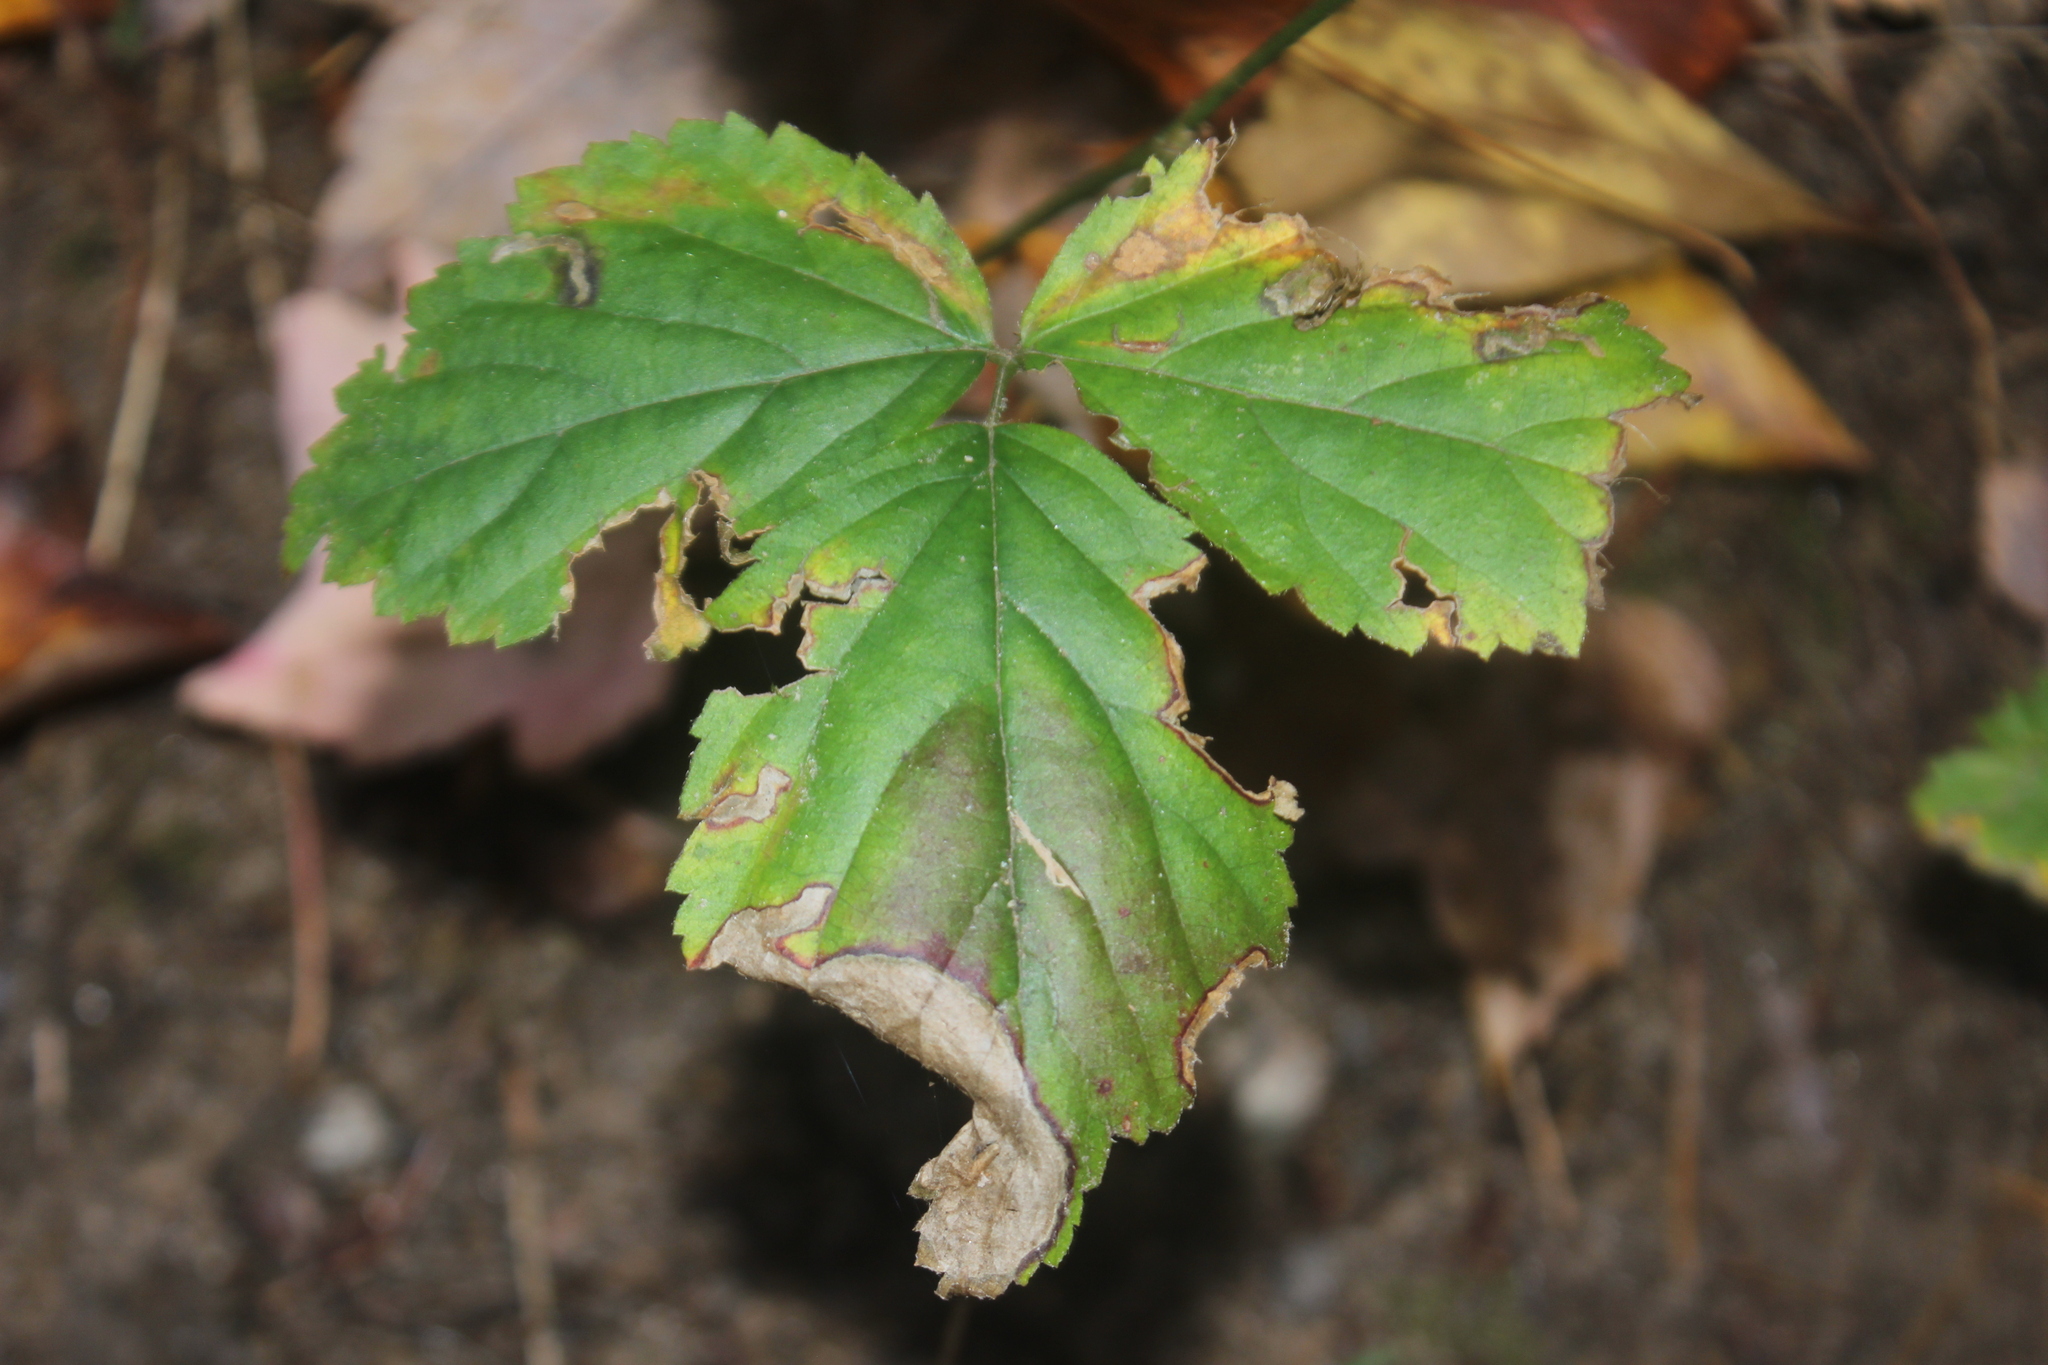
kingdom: Animalia
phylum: Arthropoda
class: Insecta
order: Hymenoptera
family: Tenthredinidae
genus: Metallus
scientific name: Metallus rohweri
